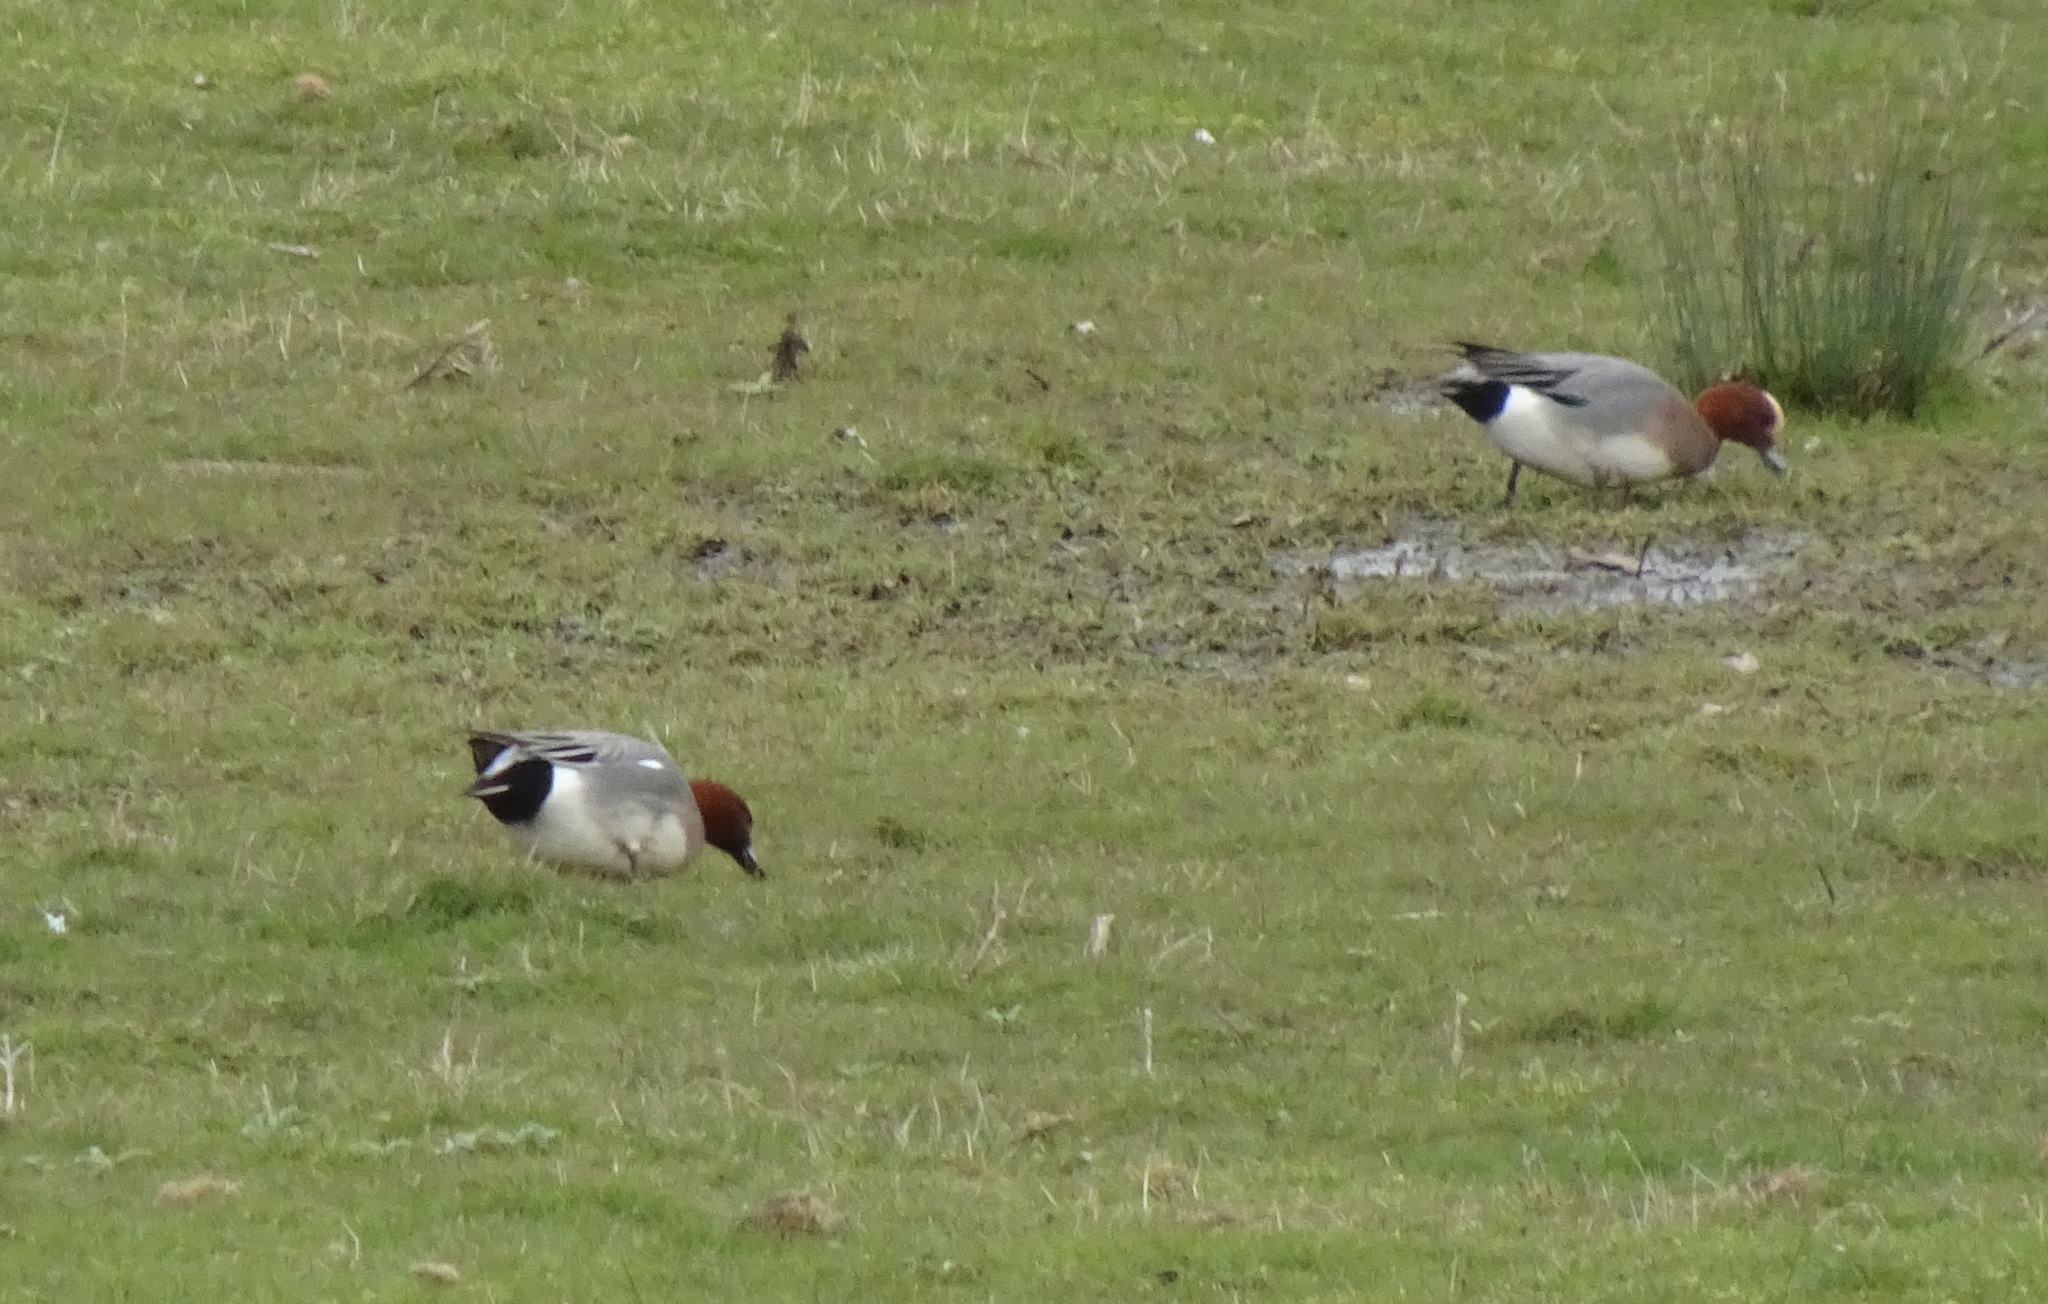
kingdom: Animalia
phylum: Chordata
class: Aves
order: Anseriformes
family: Anatidae
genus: Mareca
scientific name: Mareca penelope
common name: Eurasian wigeon
